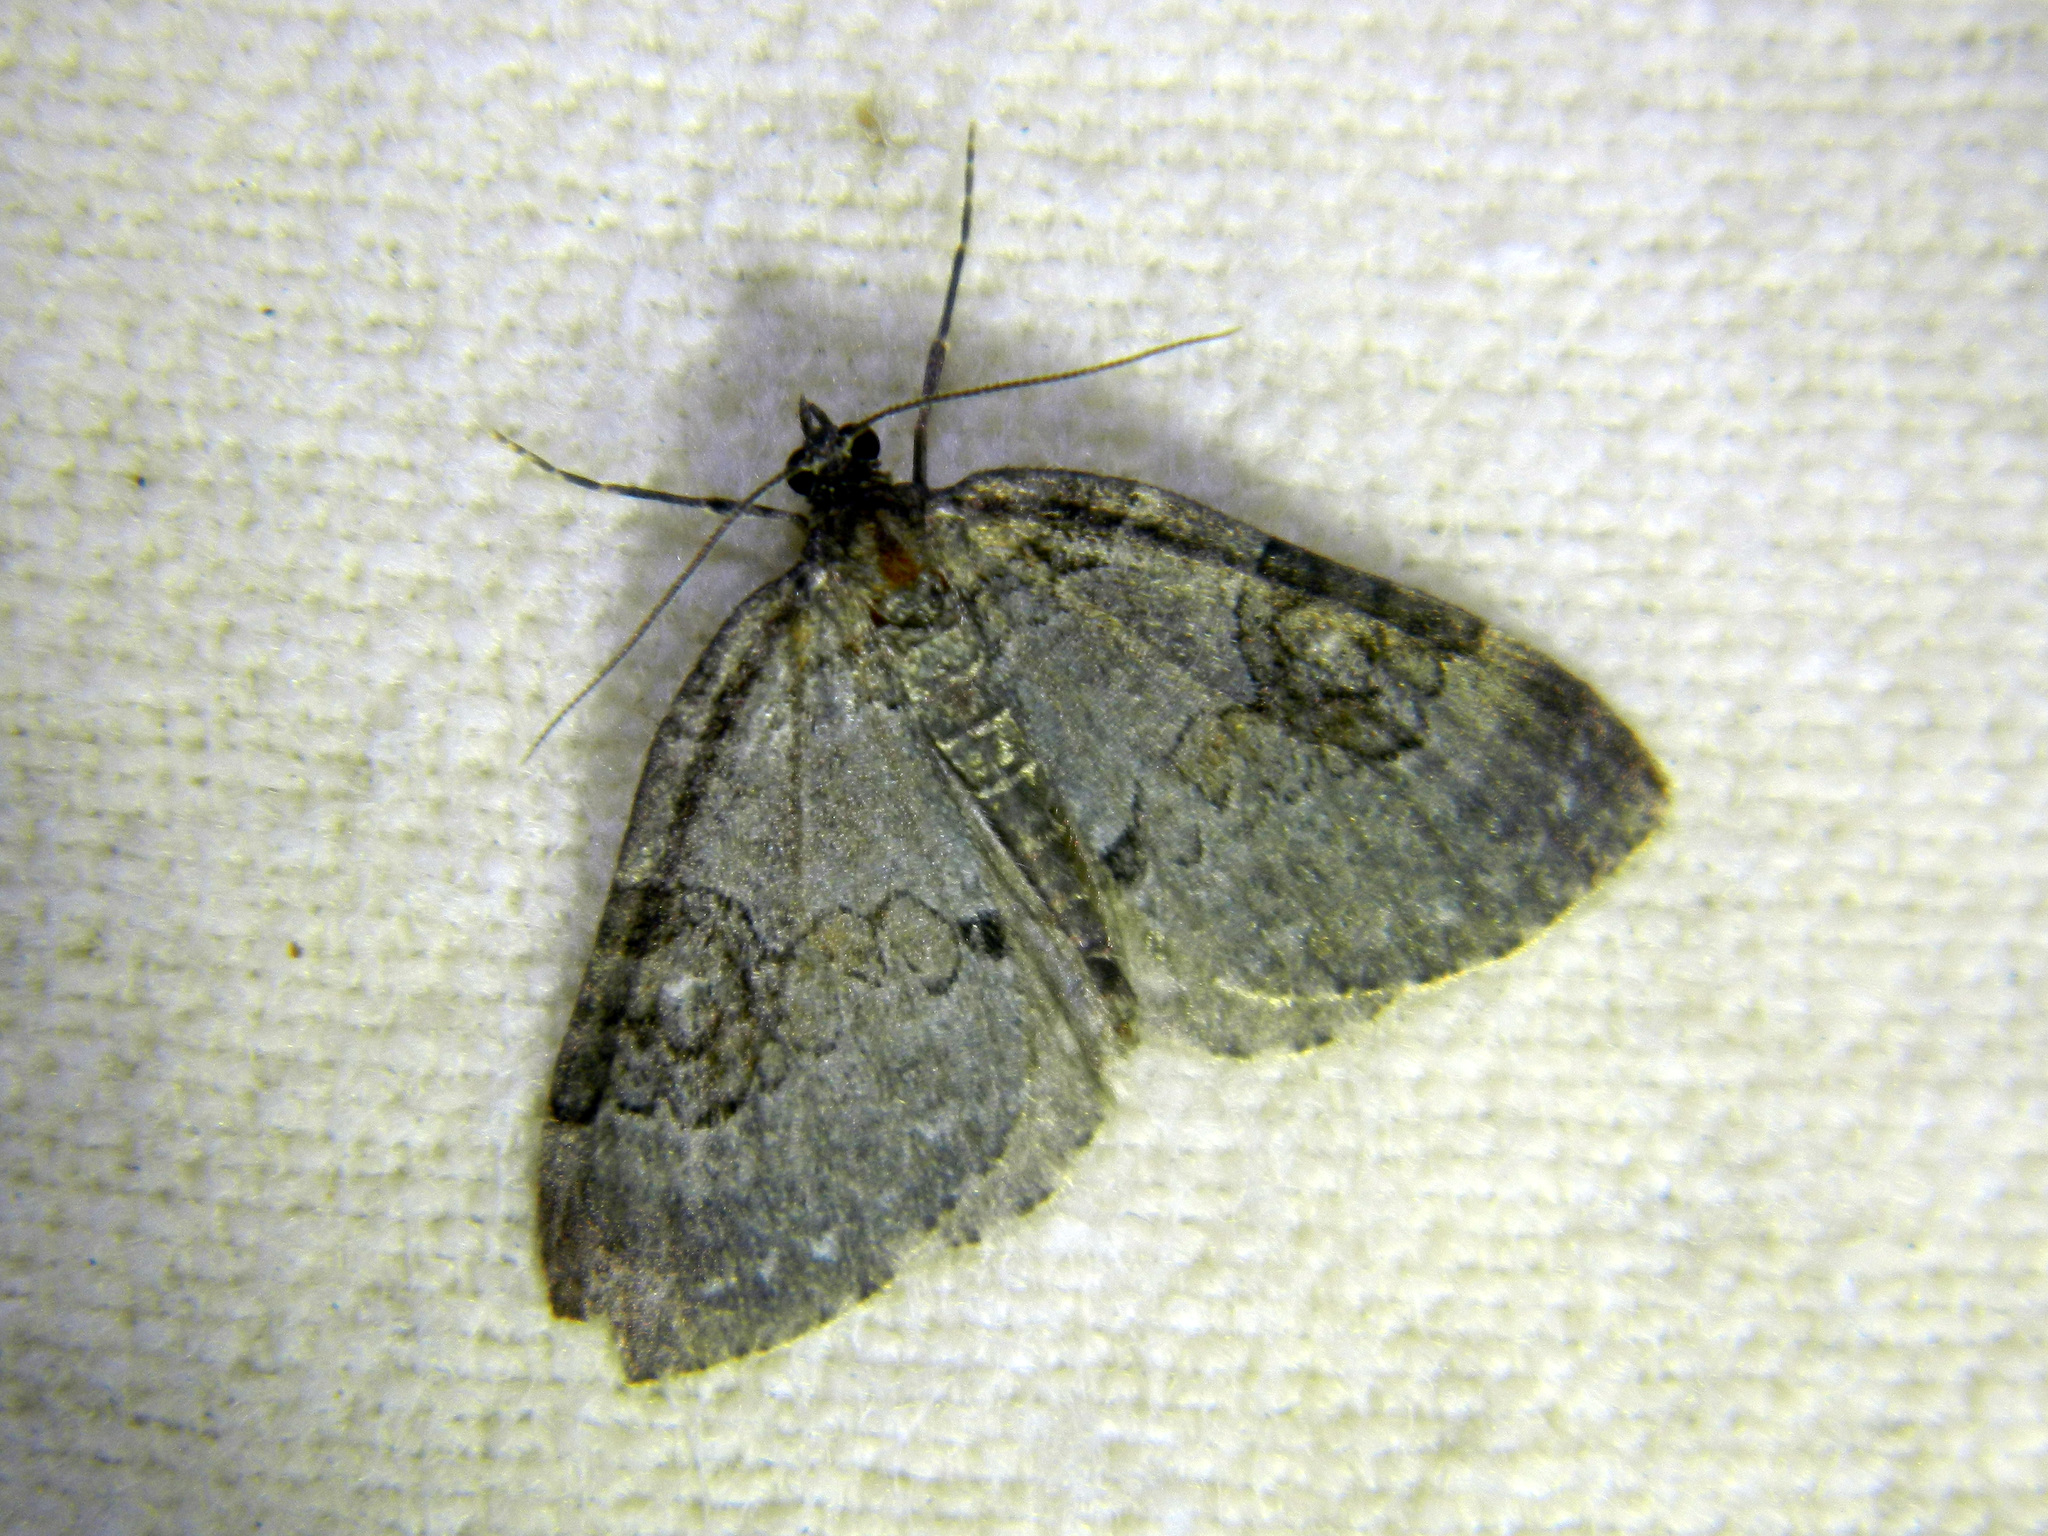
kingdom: Animalia
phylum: Arthropoda
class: Insecta
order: Lepidoptera
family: Geometridae
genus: Plemyria
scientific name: Plemyria georgii
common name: George's carpet moth
